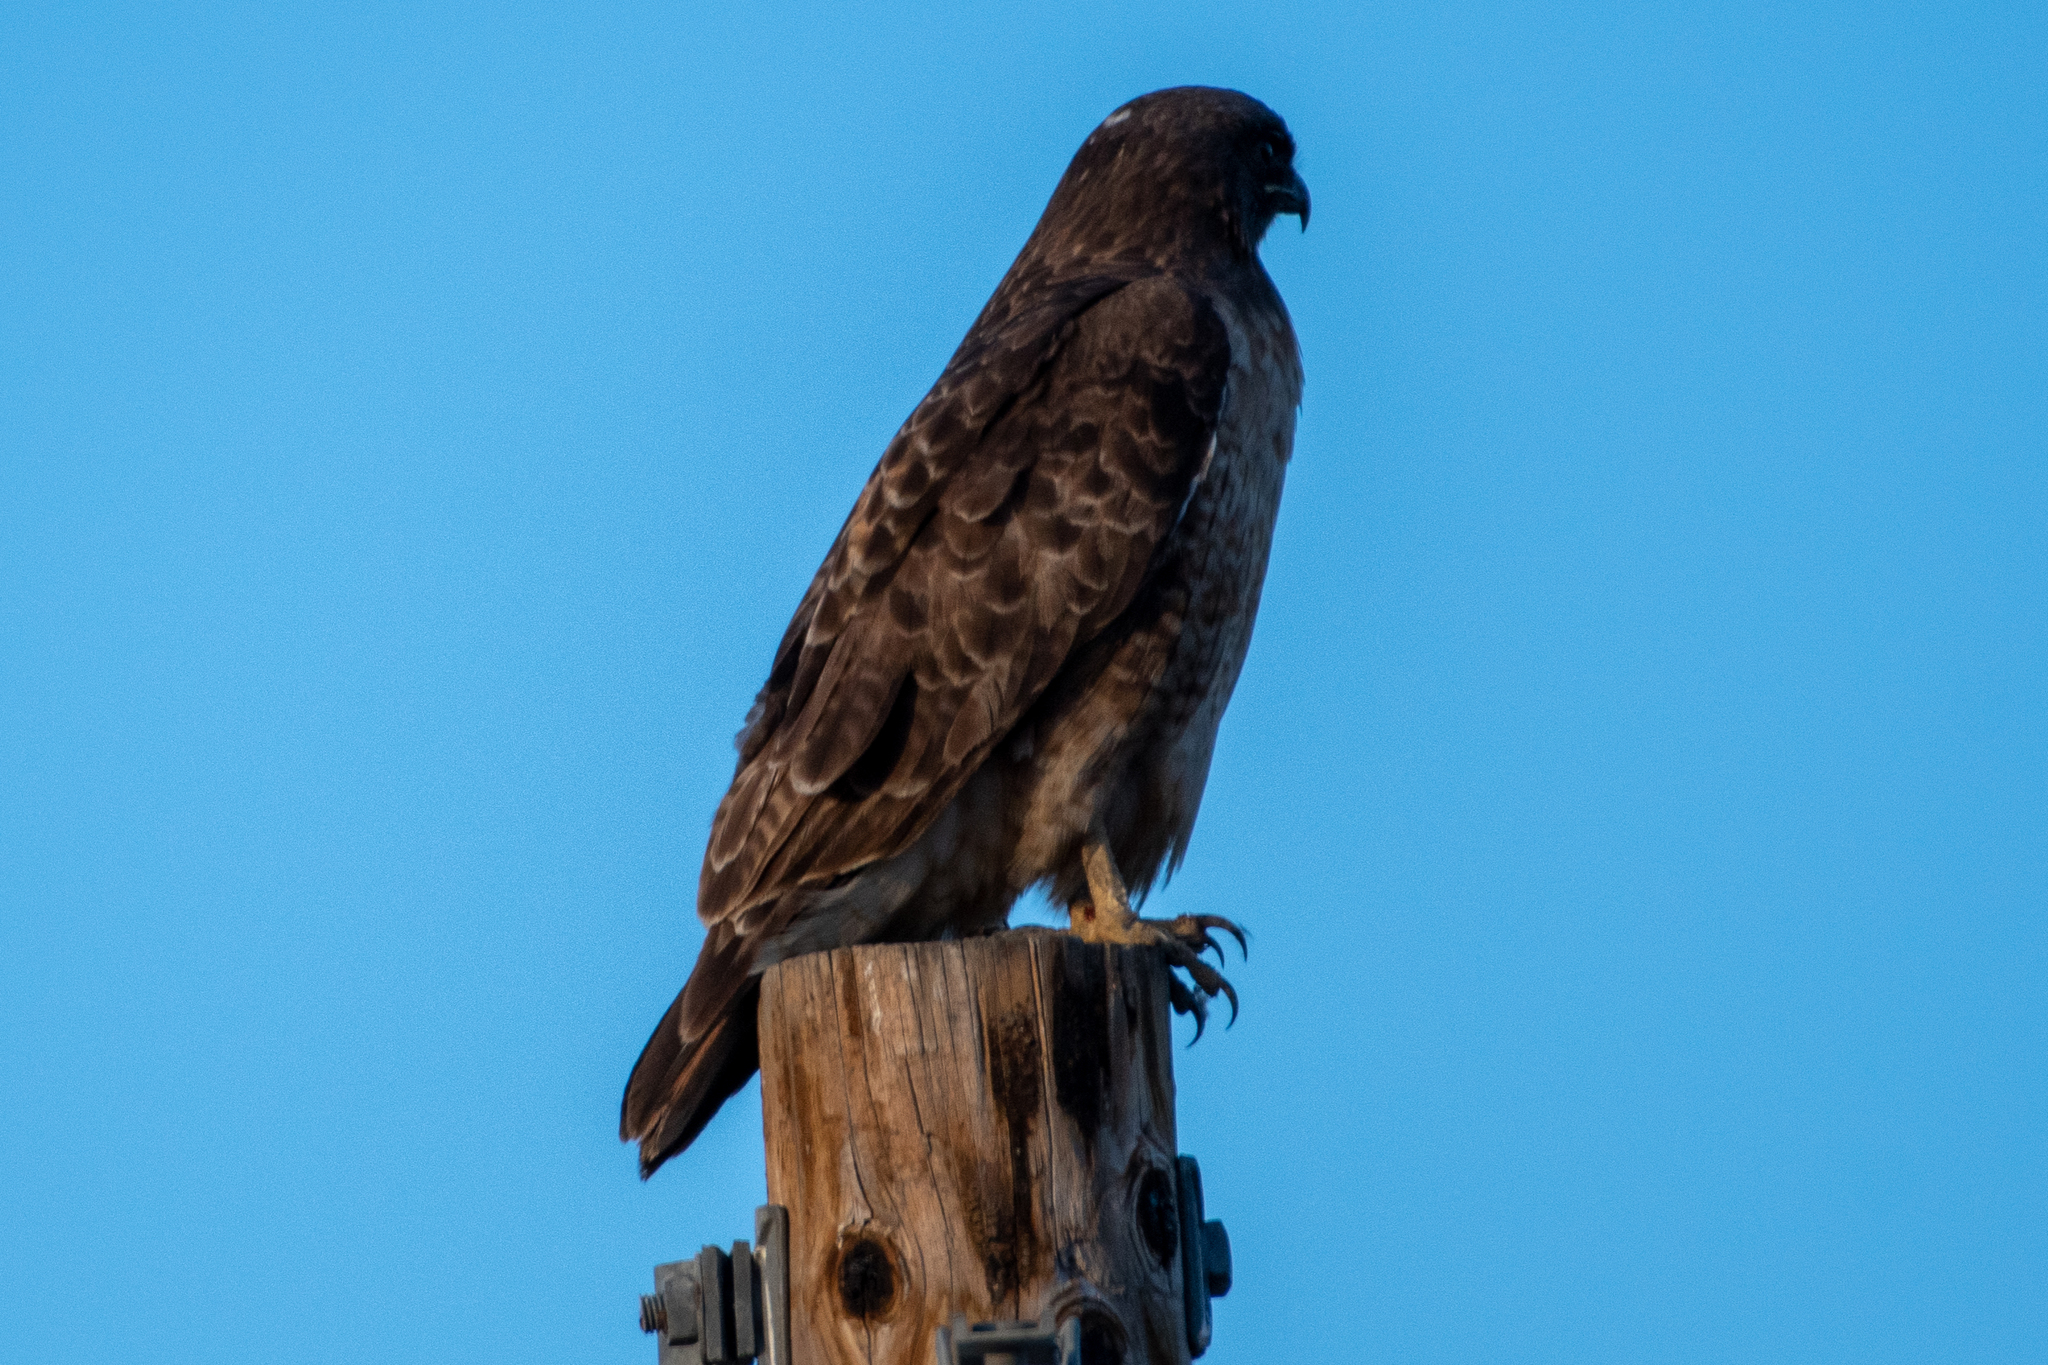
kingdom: Animalia
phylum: Chordata
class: Aves
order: Accipitriformes
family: Accipitridae
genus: Buteo
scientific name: Buteo jamaicensis
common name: Red-tailed hawk
